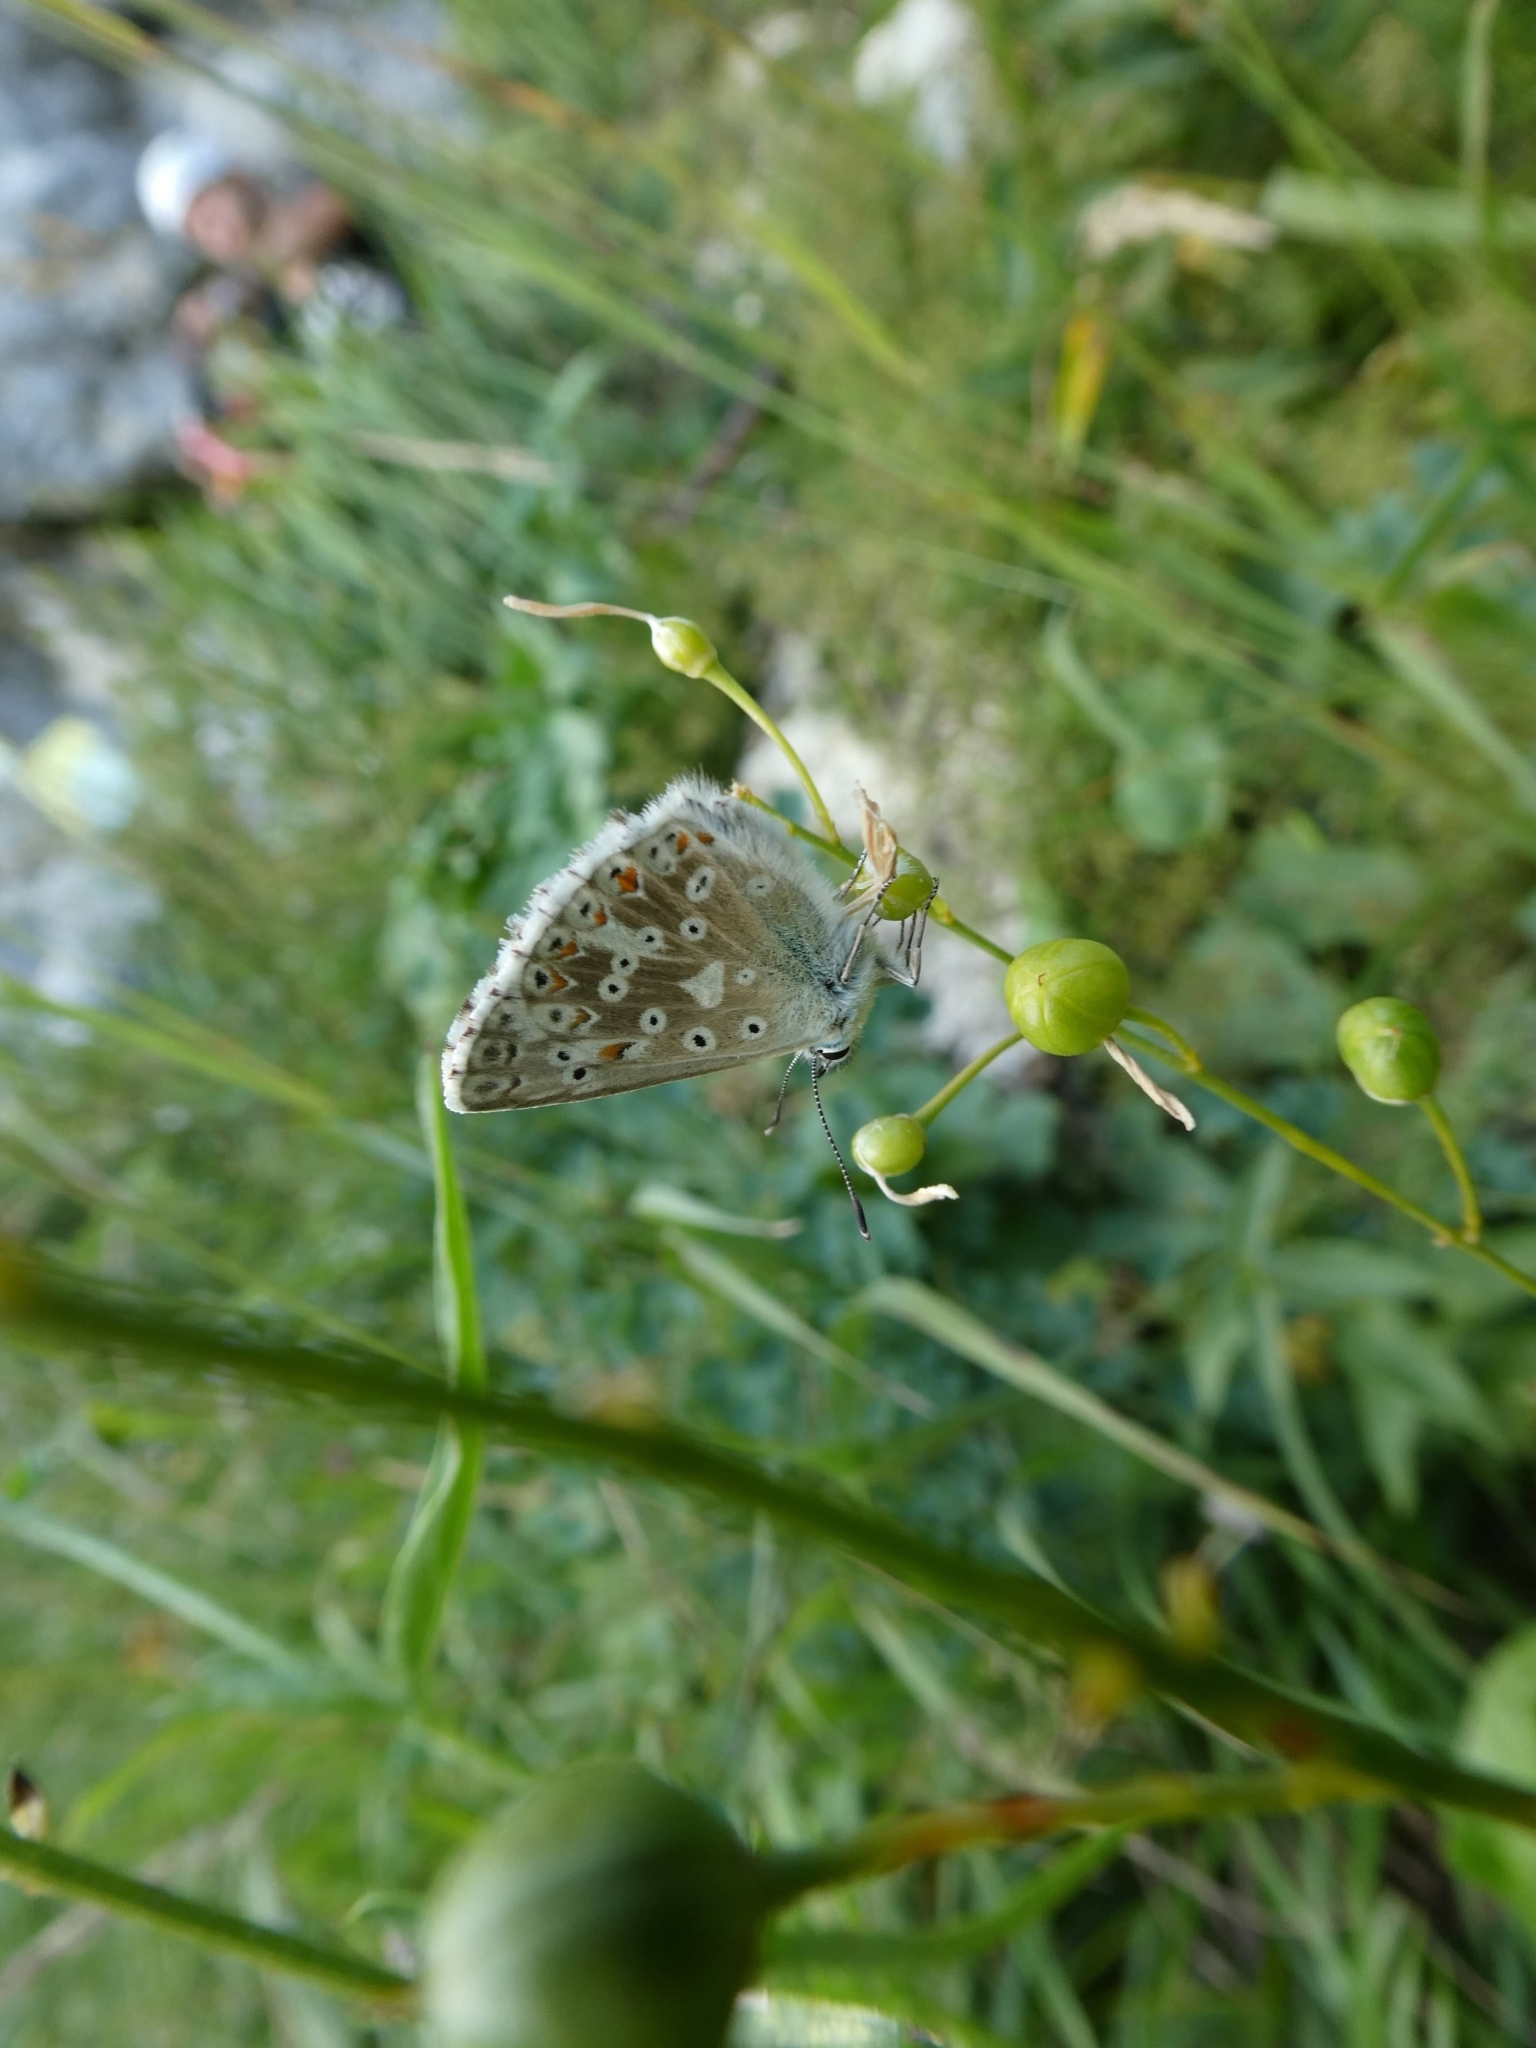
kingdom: Animalia
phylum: Arthropoda
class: Insecta
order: Lepidoptera
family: Lycaenidae
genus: Lysandra
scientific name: Lysandra coridon
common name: Chalkhill blue
